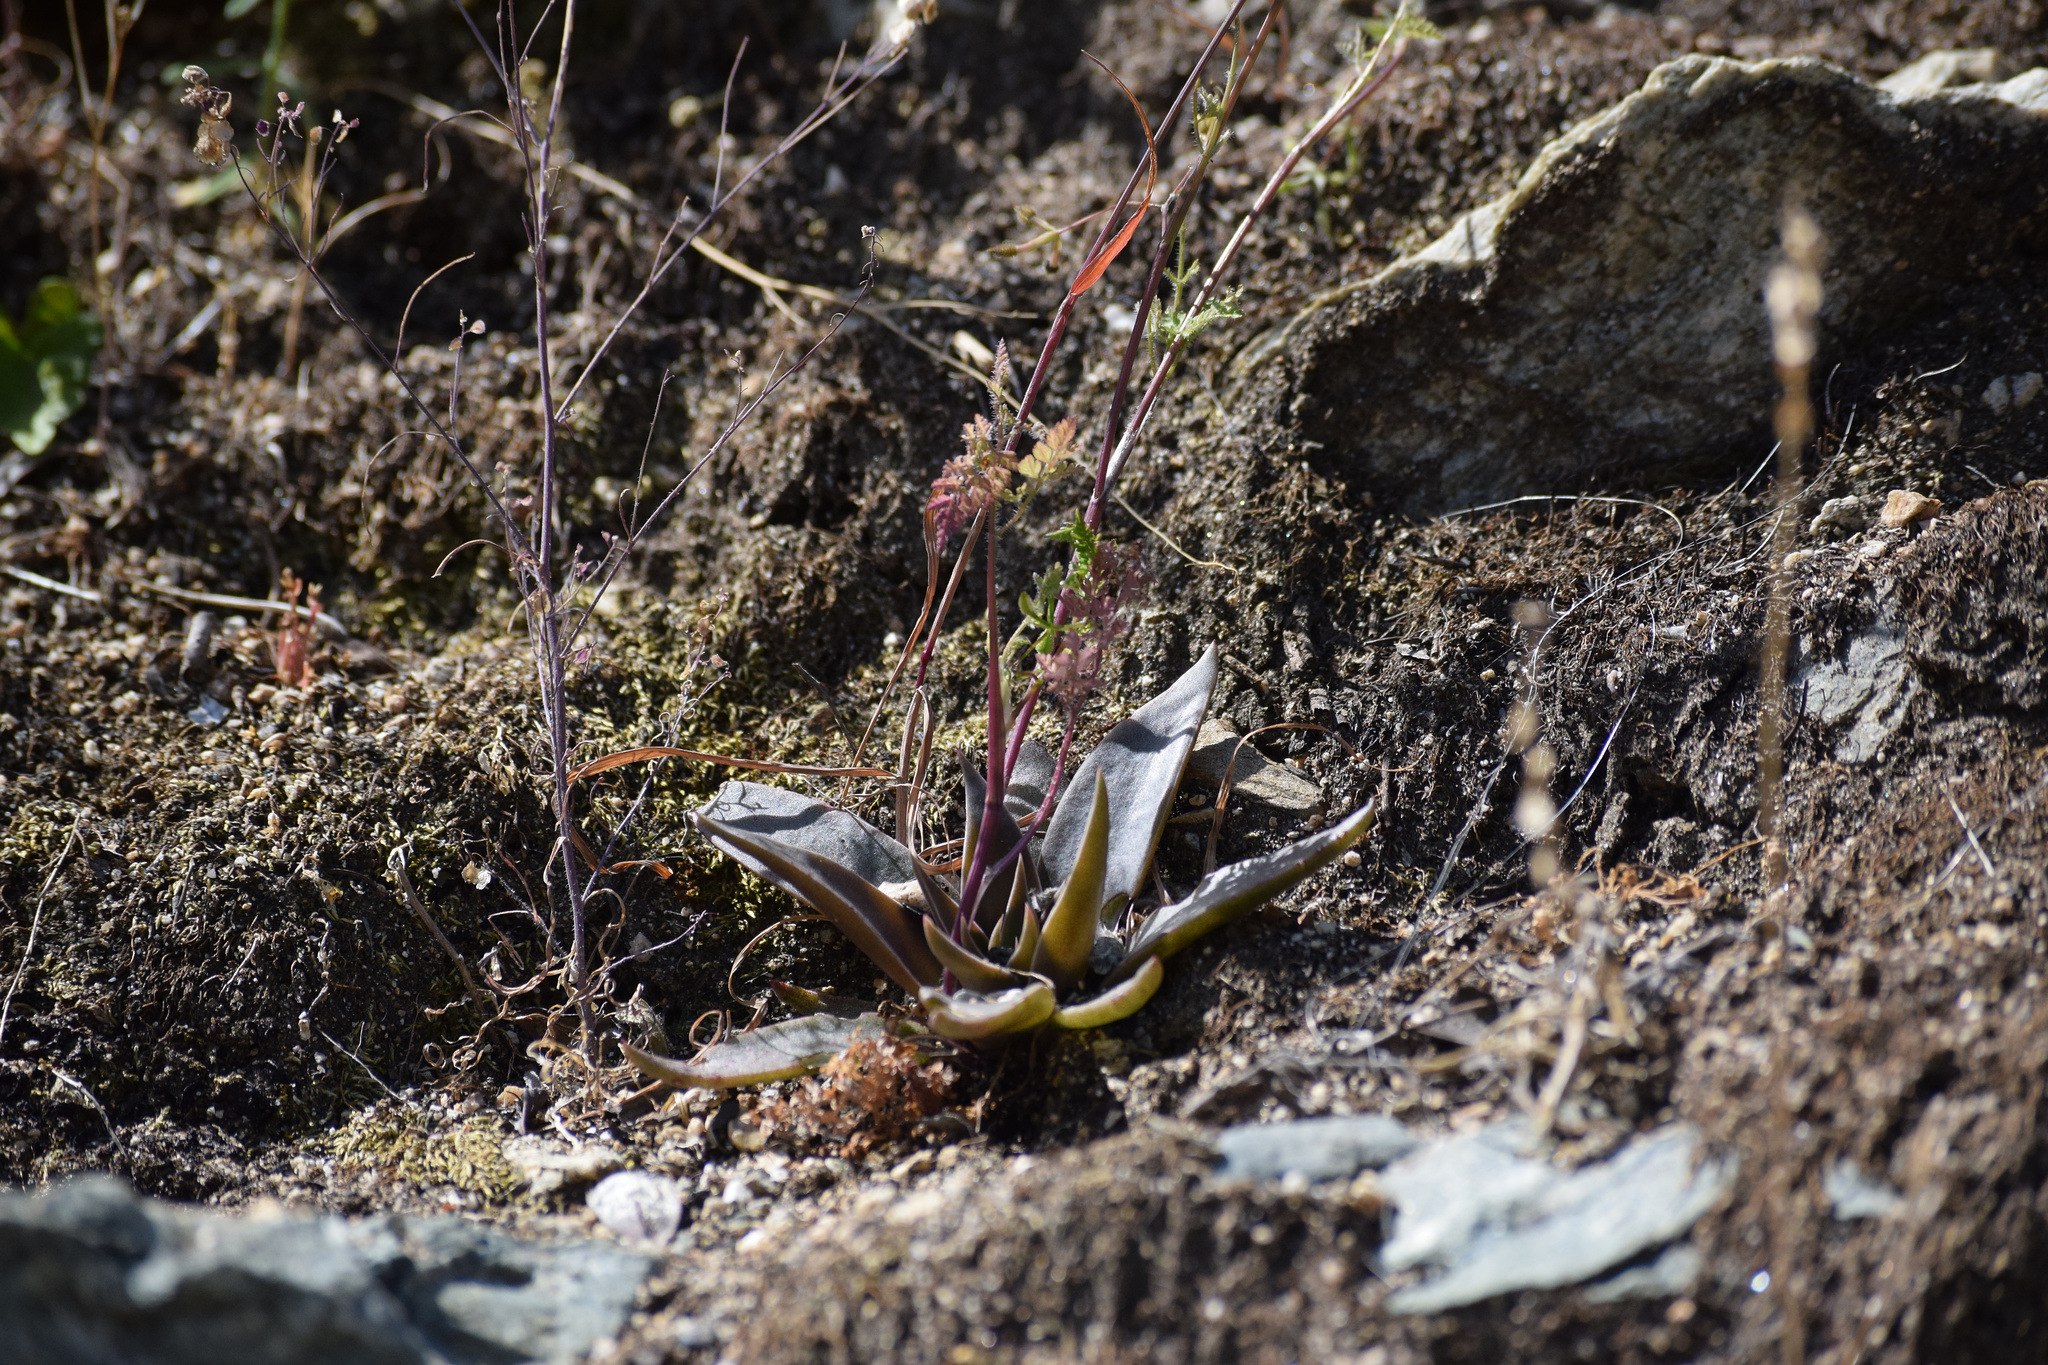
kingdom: Plantae
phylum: Tracheophyta
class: Magnoliopsida
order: Saxifragales
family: Crassulaceae
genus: Dudleya
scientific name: Dudleya lanceolata
